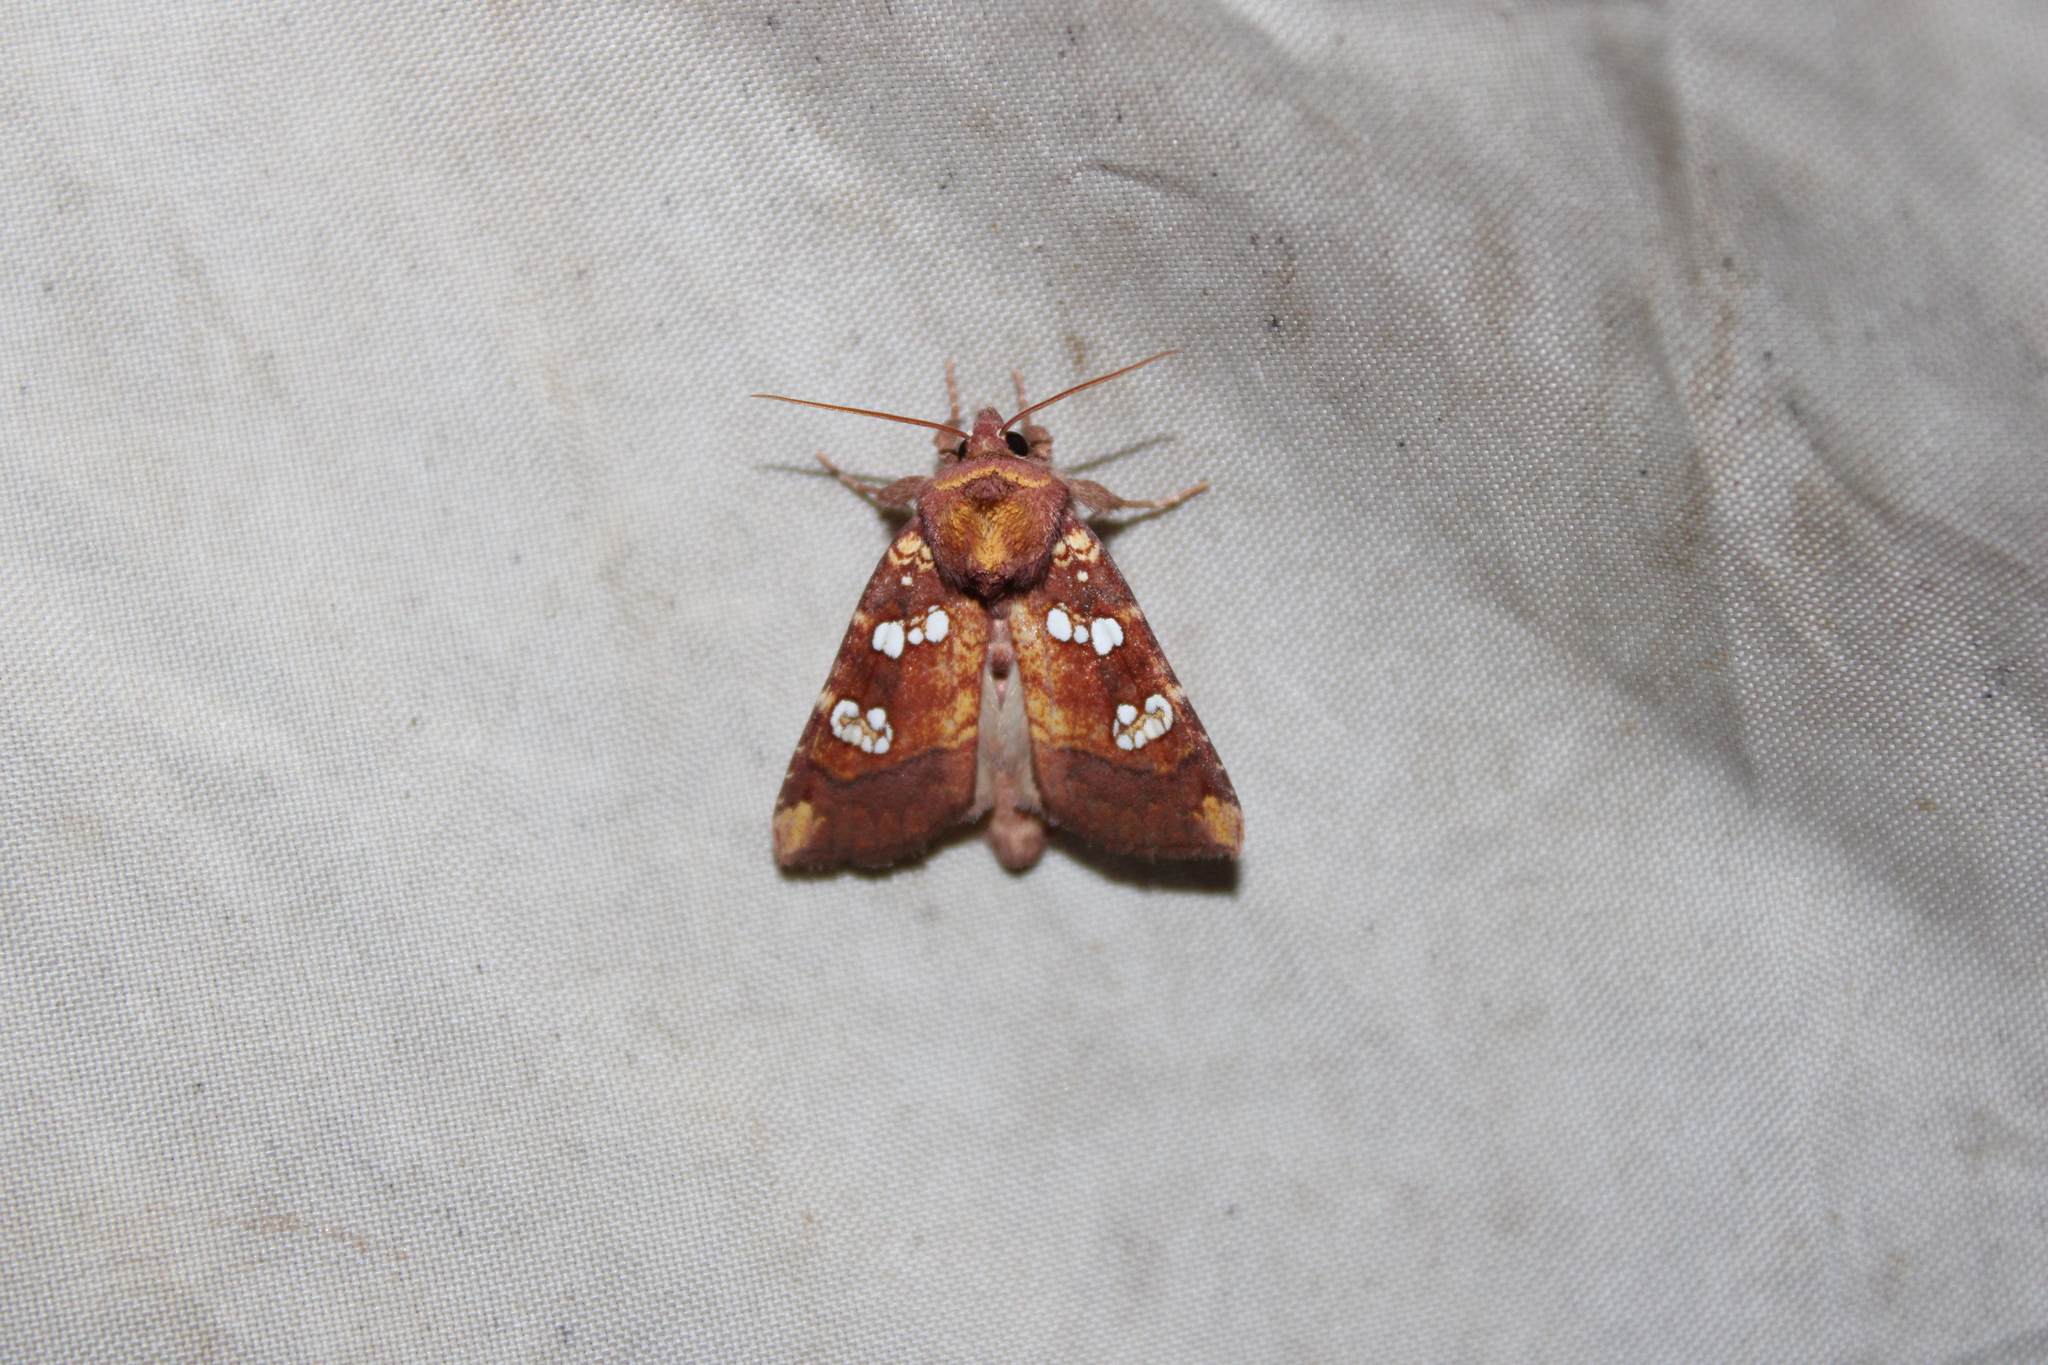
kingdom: Animalia
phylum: Arthropoda
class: Insecta
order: Lepidoptera
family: Noctuidae
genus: Papaipema
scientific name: Papaipema baptisiae
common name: Wild indigo borer moth
